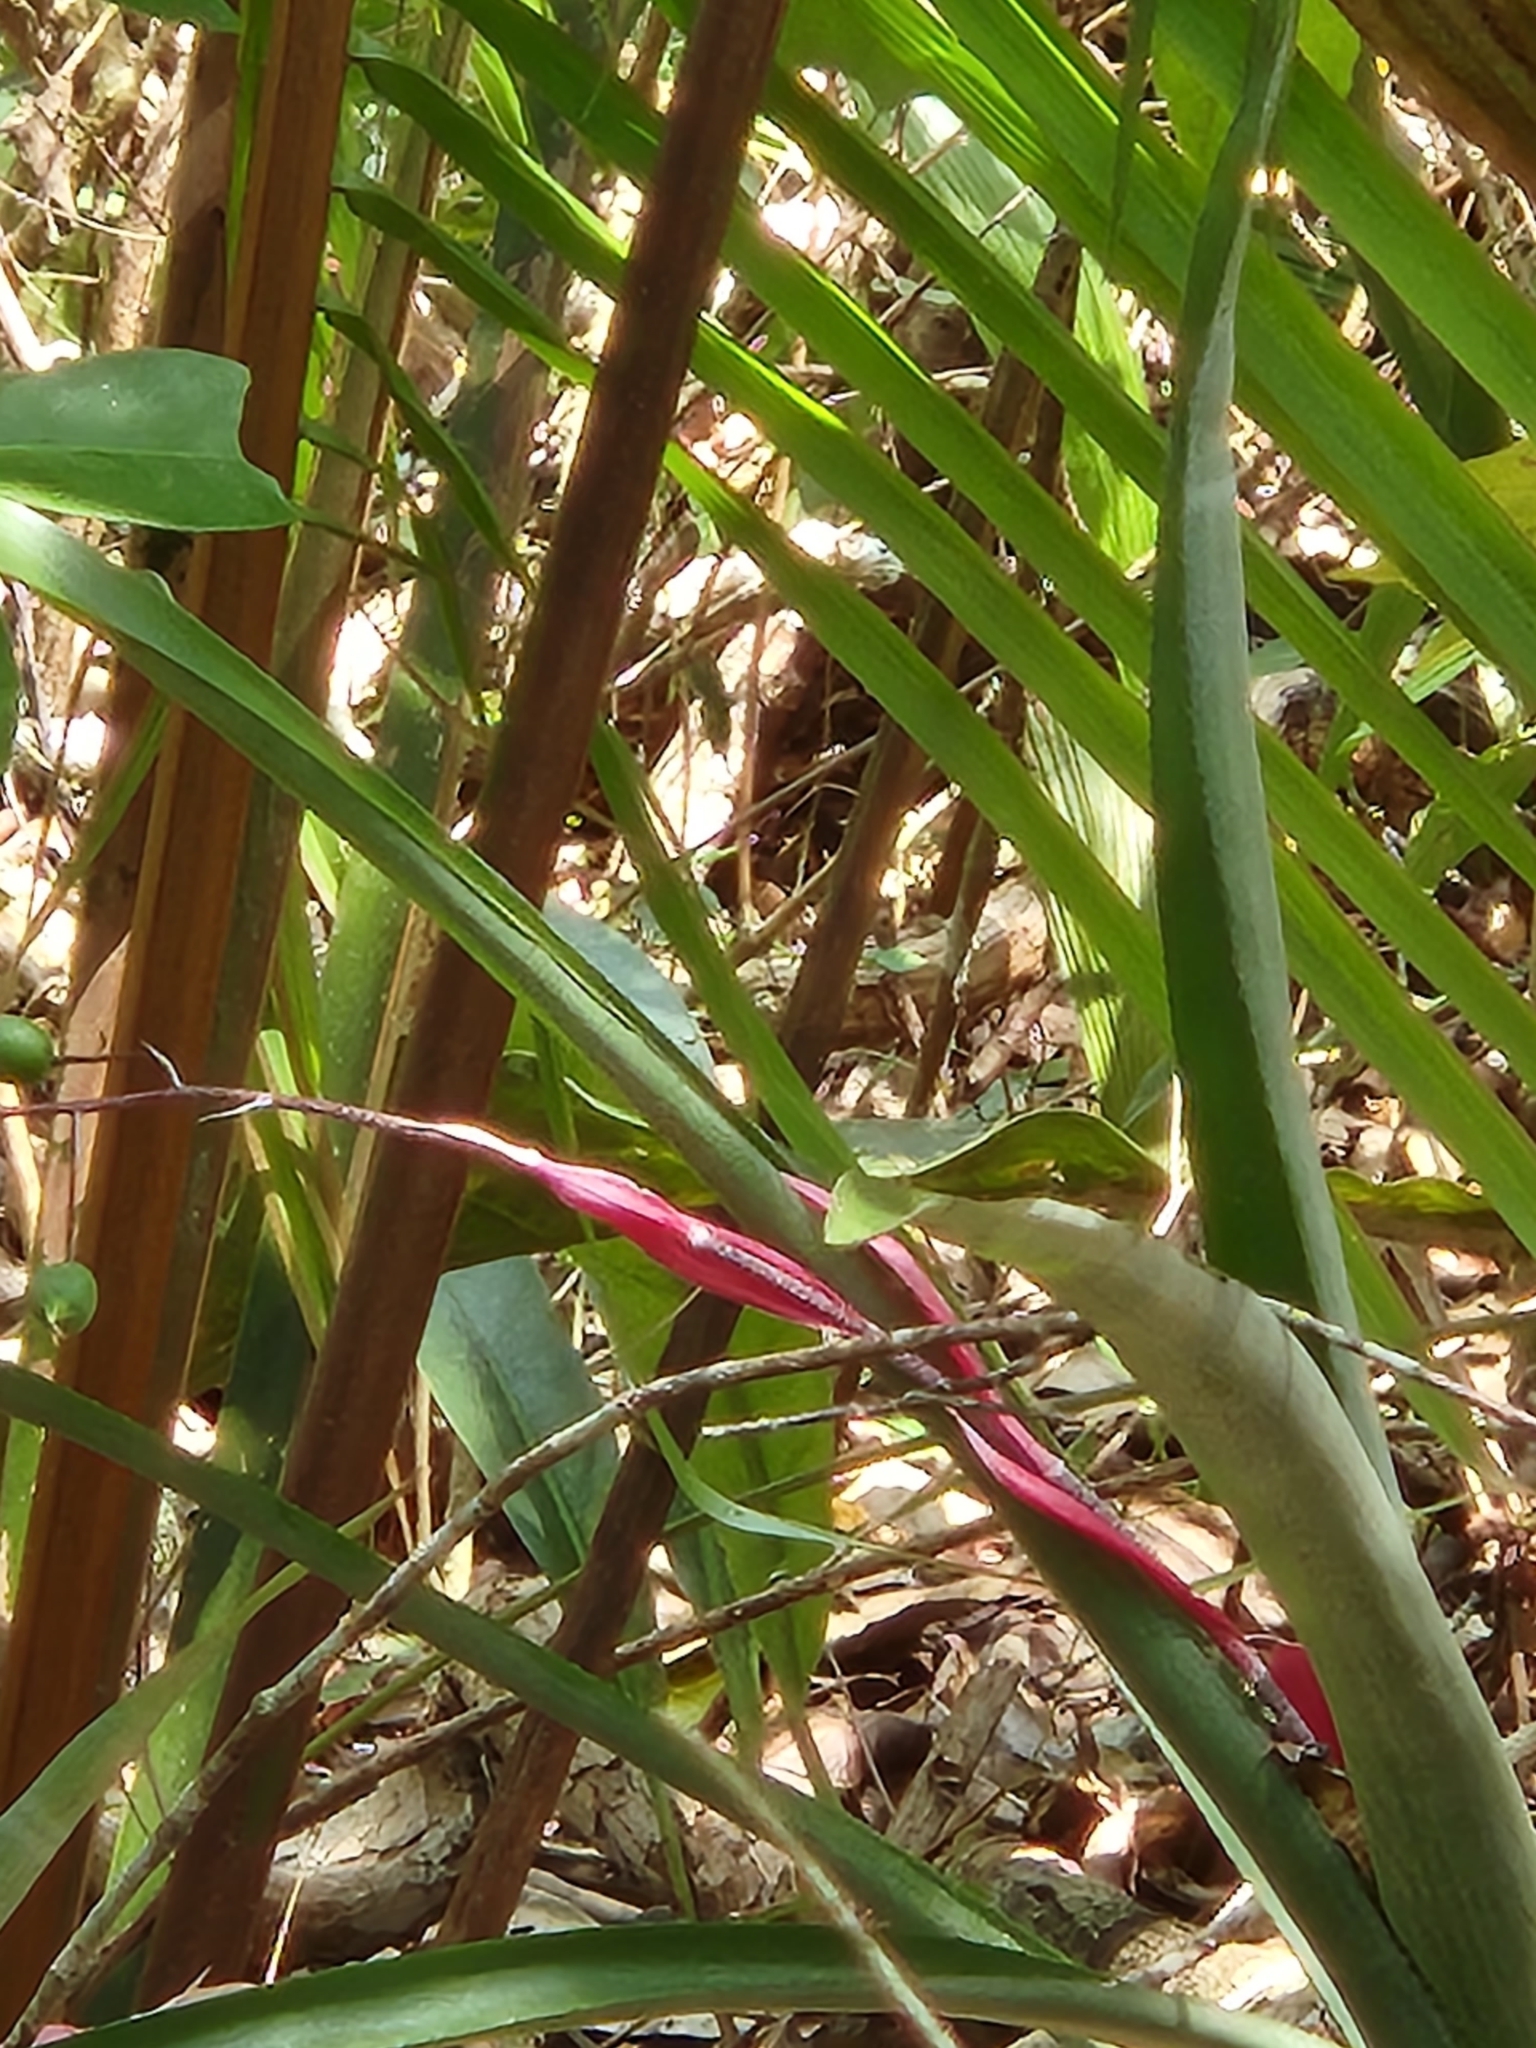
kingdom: Plantae
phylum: Tracheophyta
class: Liliopsida
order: Poales
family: Bromeliaceae
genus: Aechmea
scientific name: Aechmea bracteata
